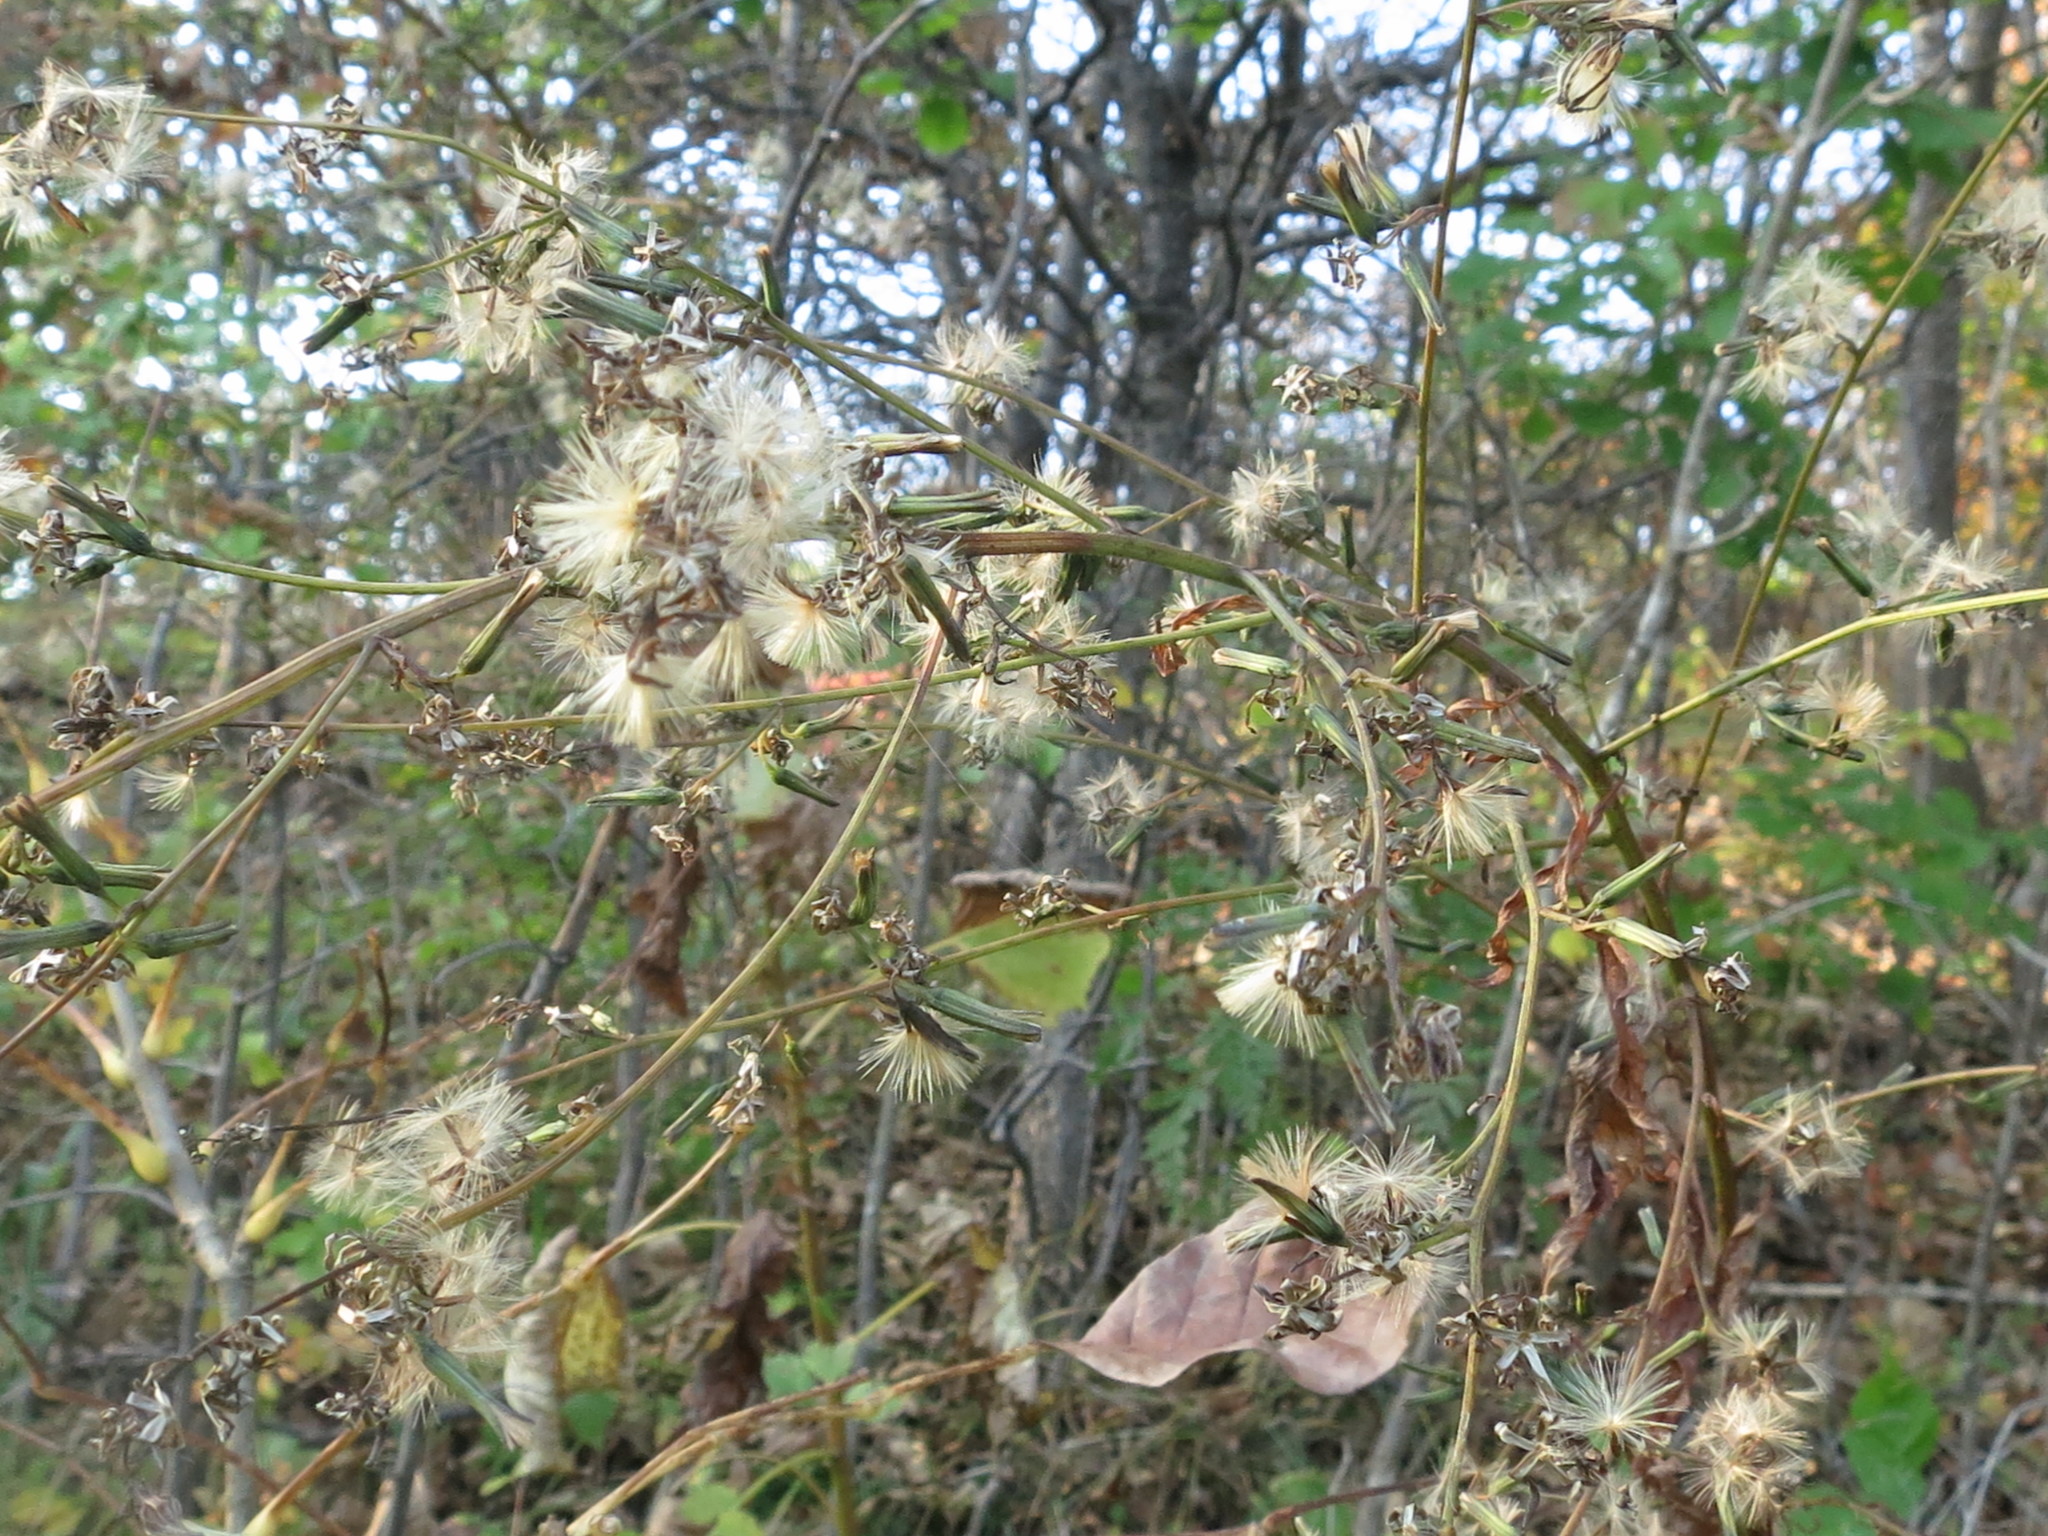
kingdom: Plantae
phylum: Tracheophyta
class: Magnoliopsida
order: Asterales
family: Asteraceae
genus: Nabalus
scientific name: Nabalus tatarinowii
